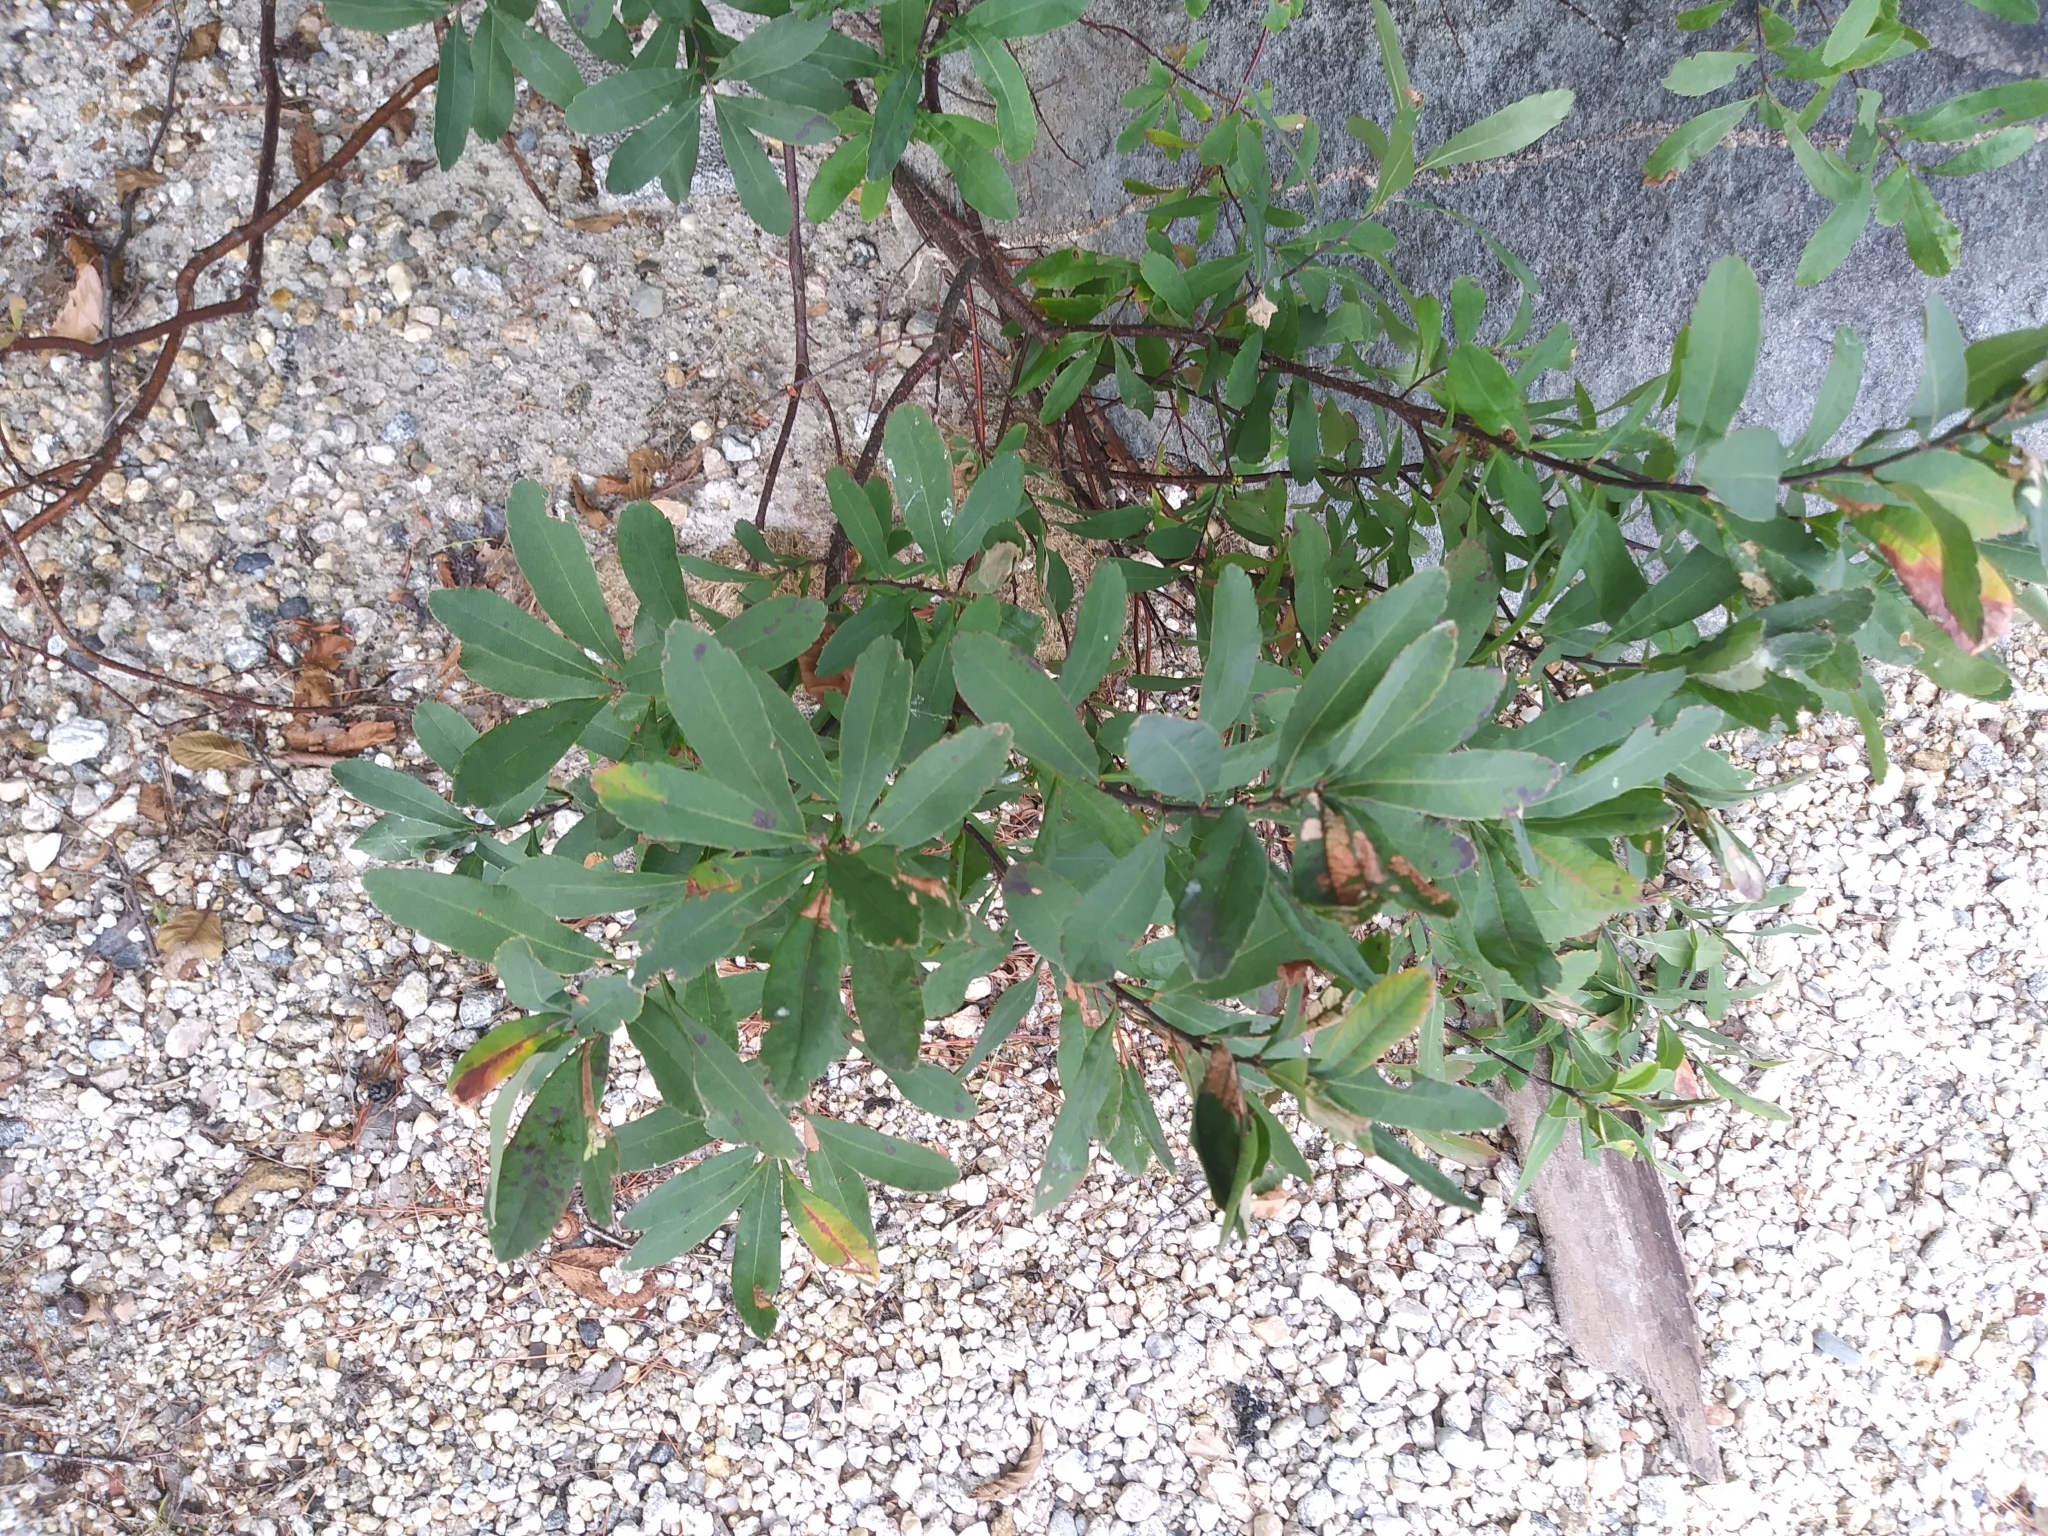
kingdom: Plantae
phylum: Tracheophyta
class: Magnoliopsida
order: Fagales
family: Myricaceae
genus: Myrica
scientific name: Myrica gale
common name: Sweet gale
